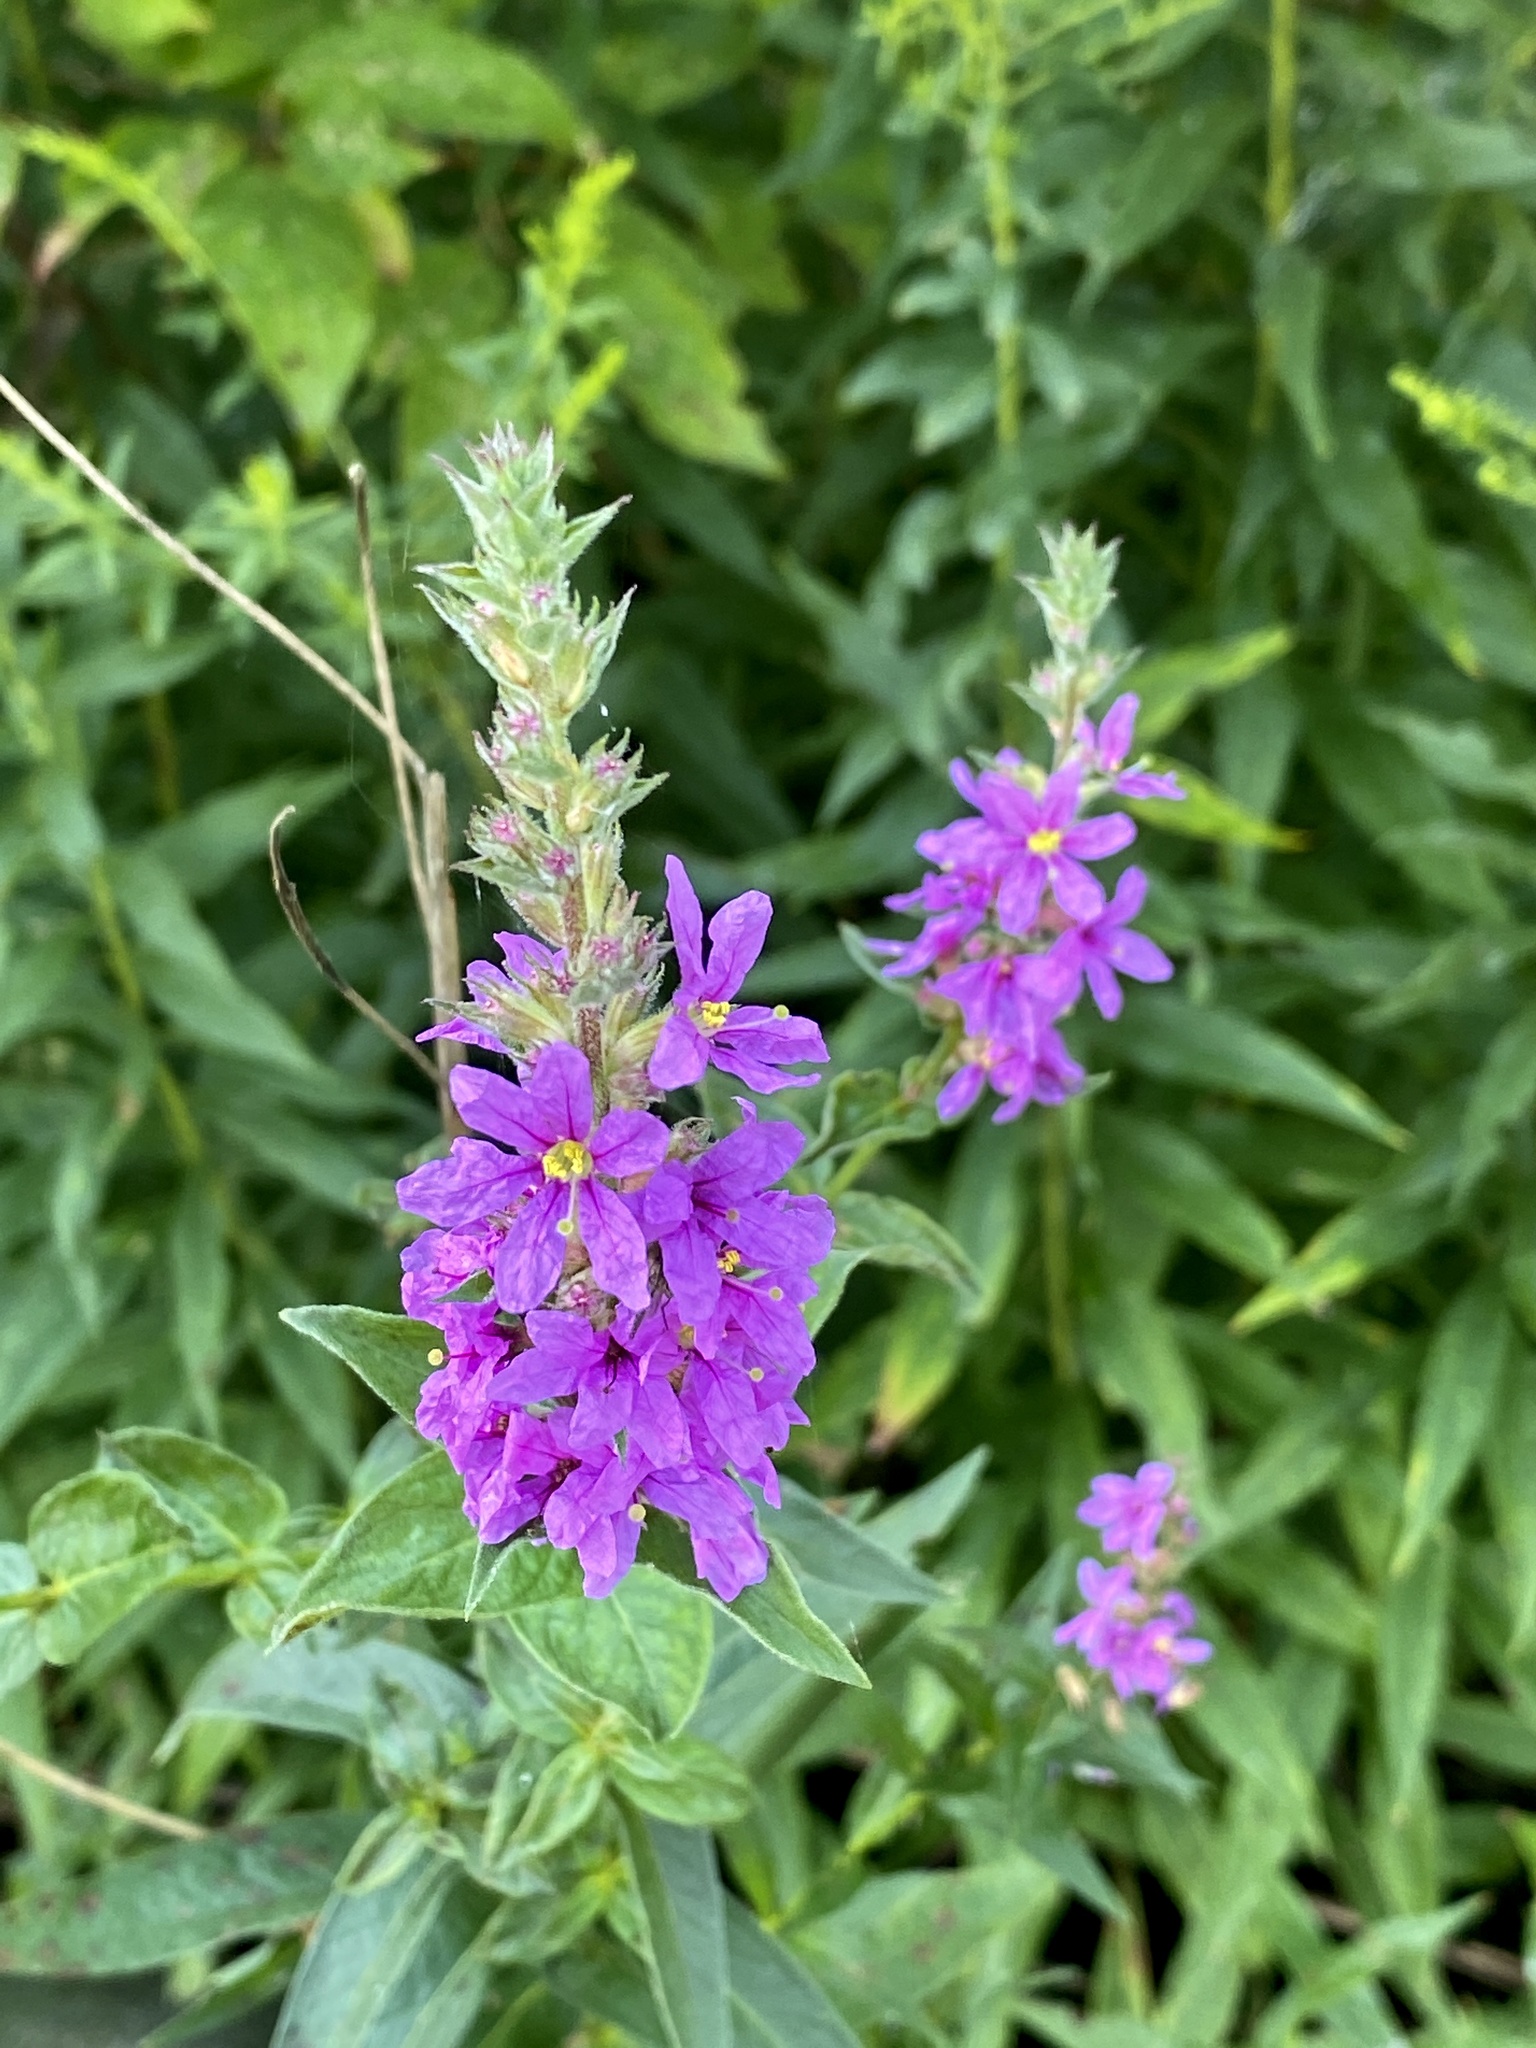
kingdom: Plantae
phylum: Tracheophyta
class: Magnoliopsida
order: Myrtales
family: Lythraceae
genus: Lythrum
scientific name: Lythrum salicaria
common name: Purple loosestrife
